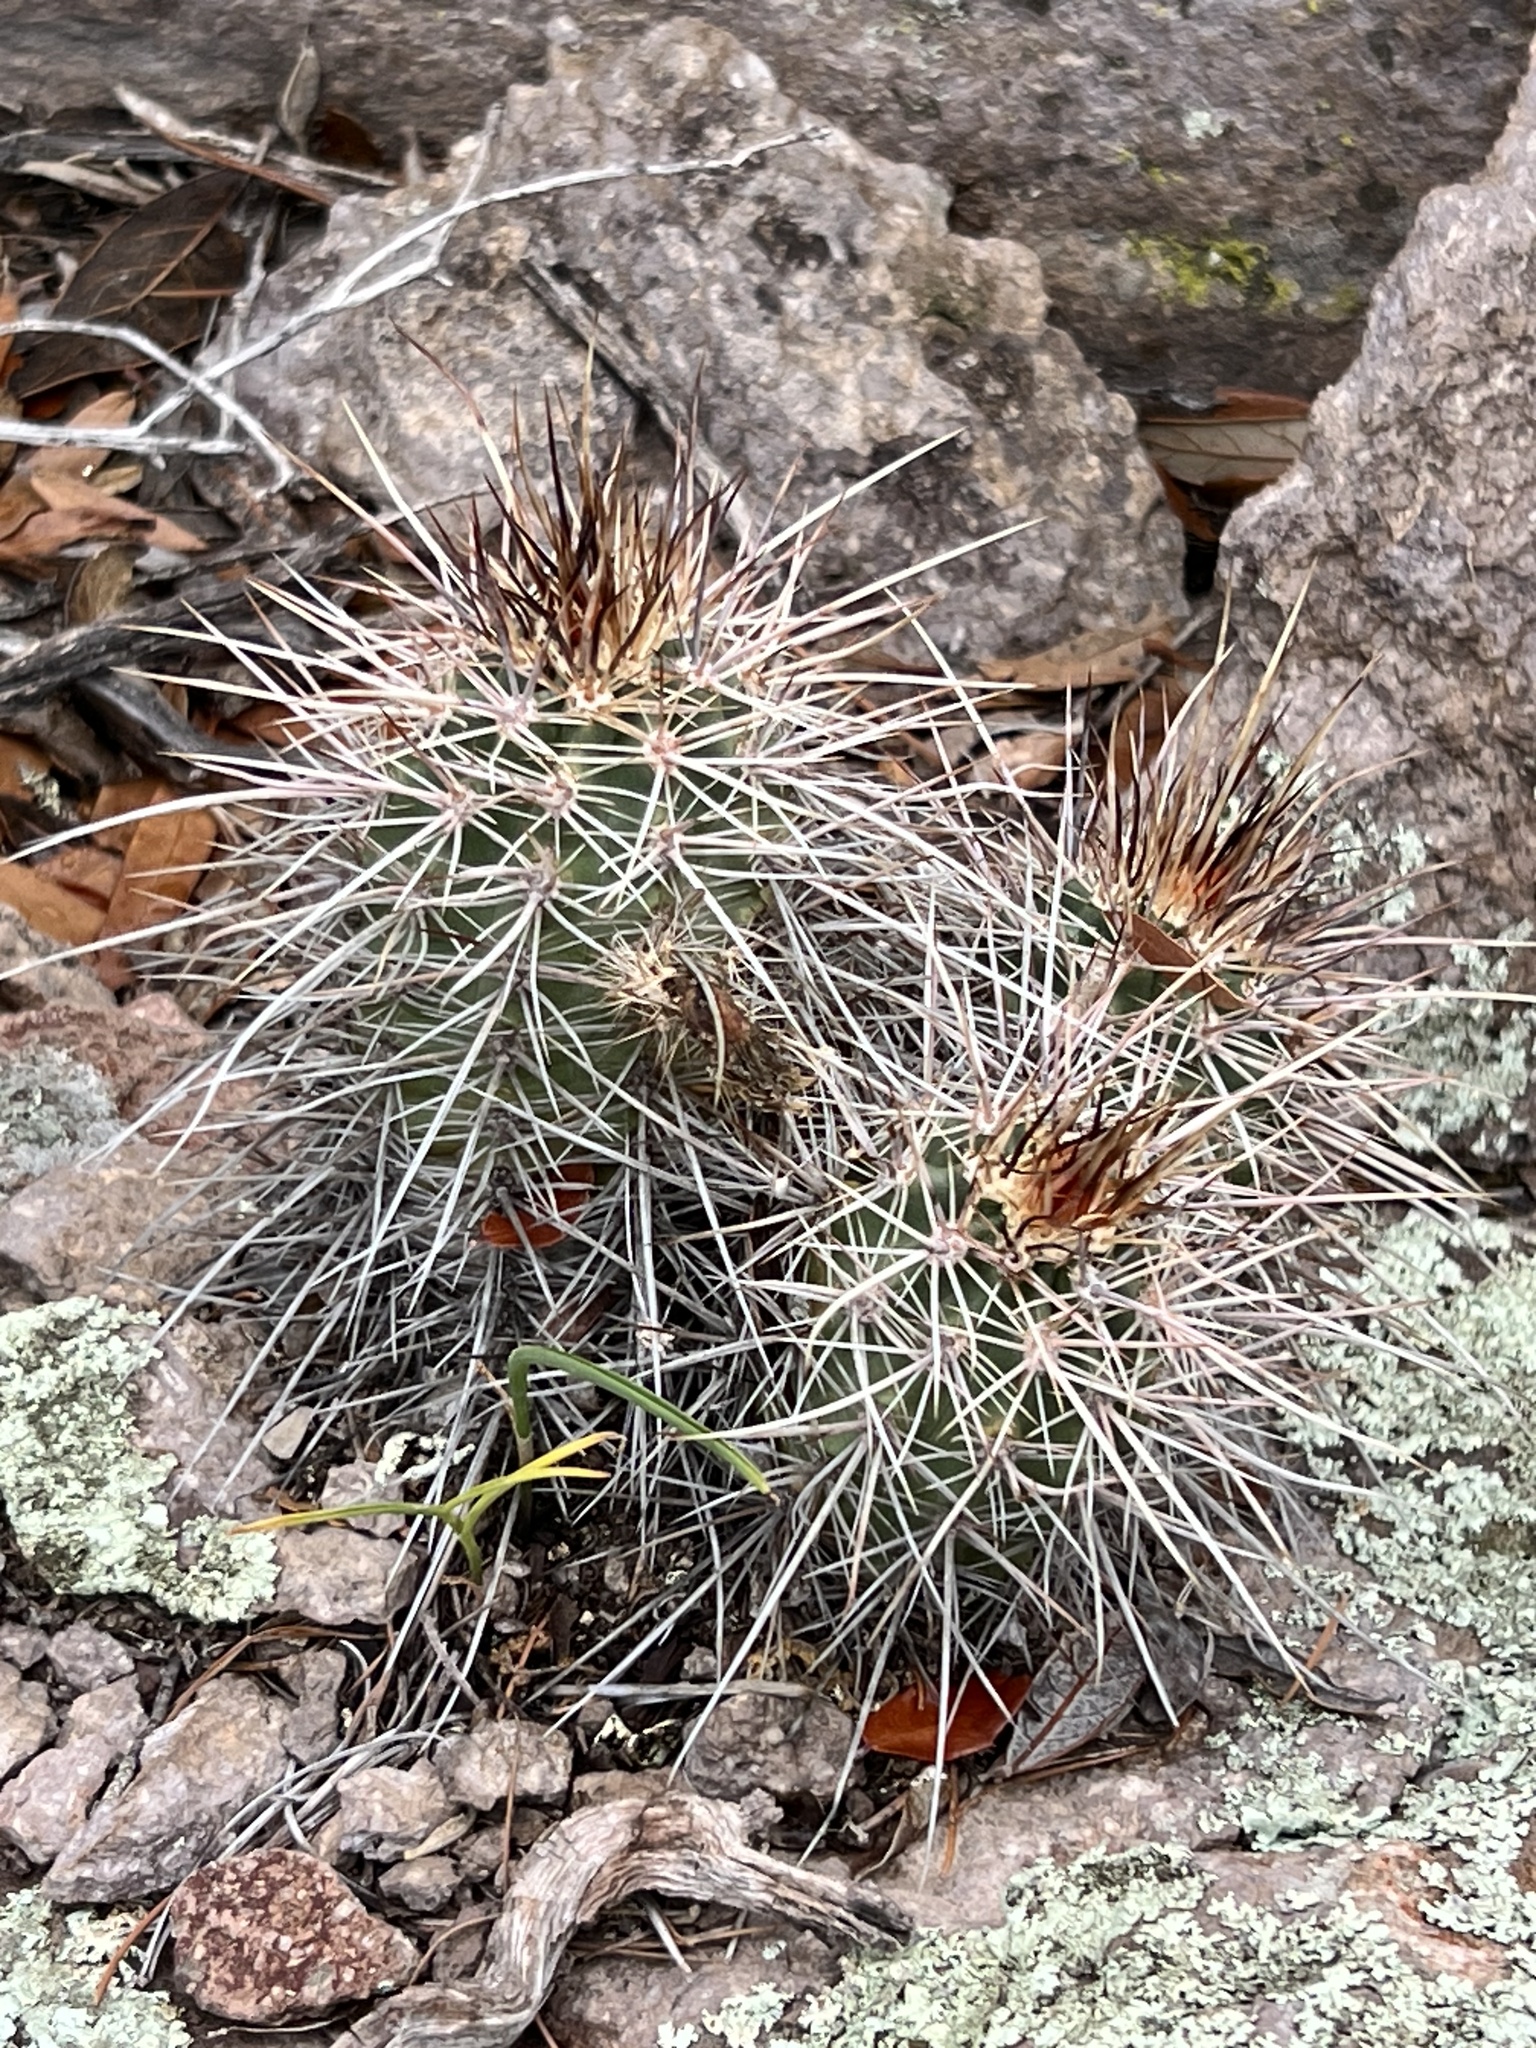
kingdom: Plantae
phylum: Tracheophyta
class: Magnoliopsida
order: Caryophyllales
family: Cactaceae
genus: Echinocereus
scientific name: Echinocereus arizonicus
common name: Arizona hedgehog cactus
